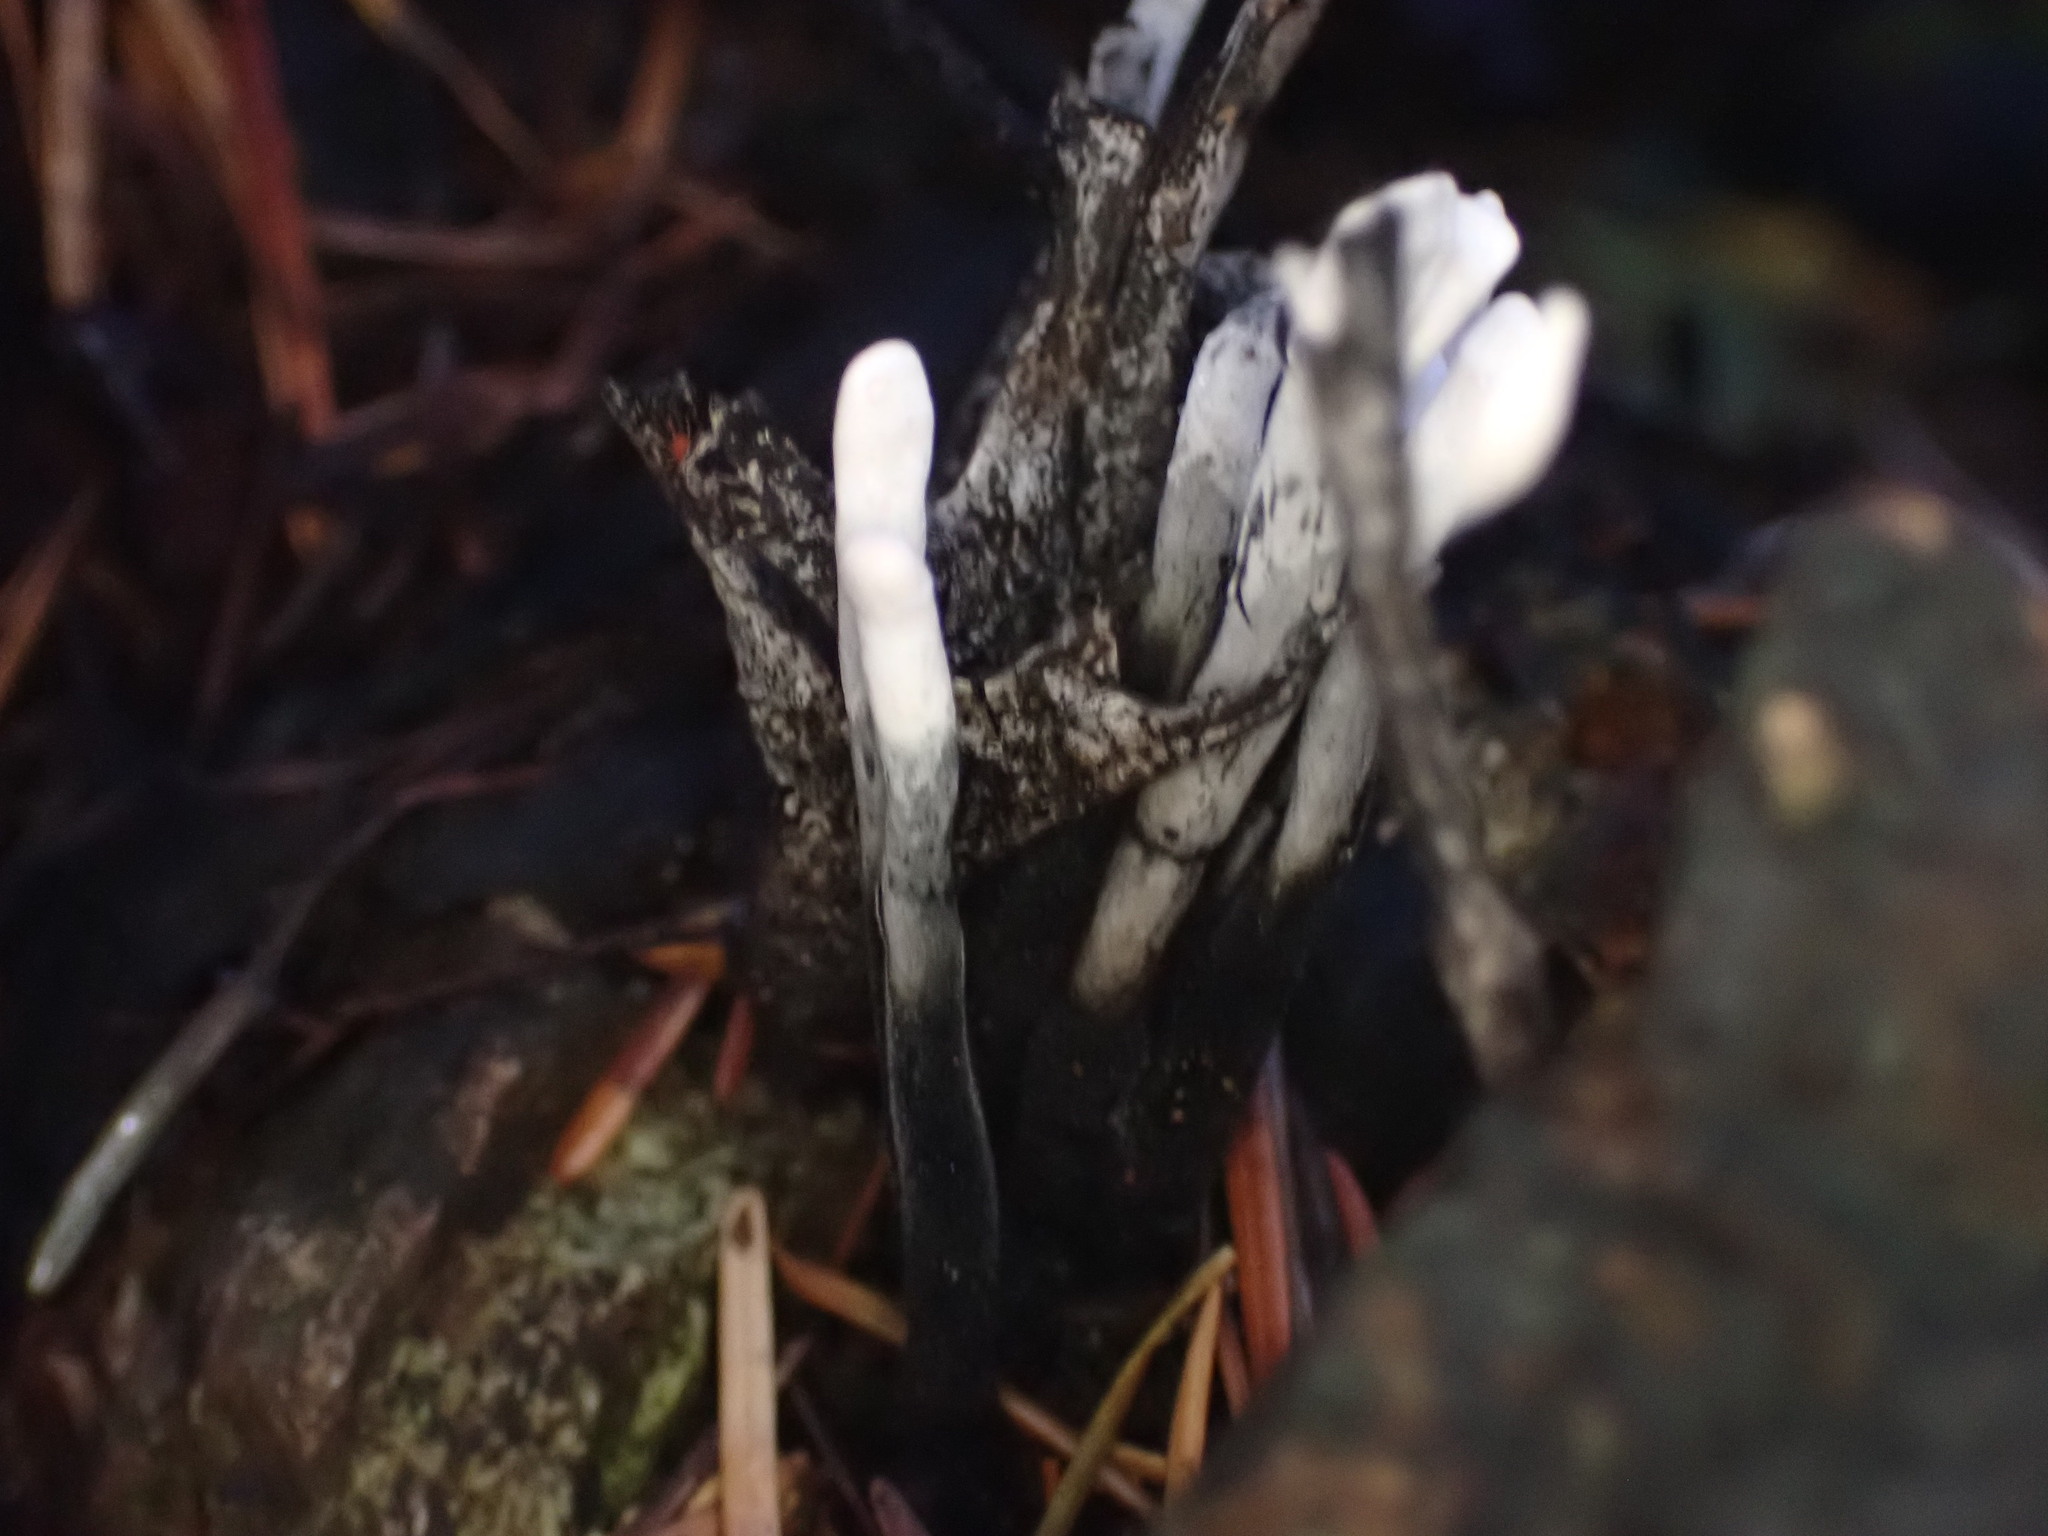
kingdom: Fungi
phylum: Ascomycota
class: Sordariomycetes
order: Xylariales
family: Xylariaceae
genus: Xylaria
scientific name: Xylaria hypoxylon
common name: Candle-snuff fungus
